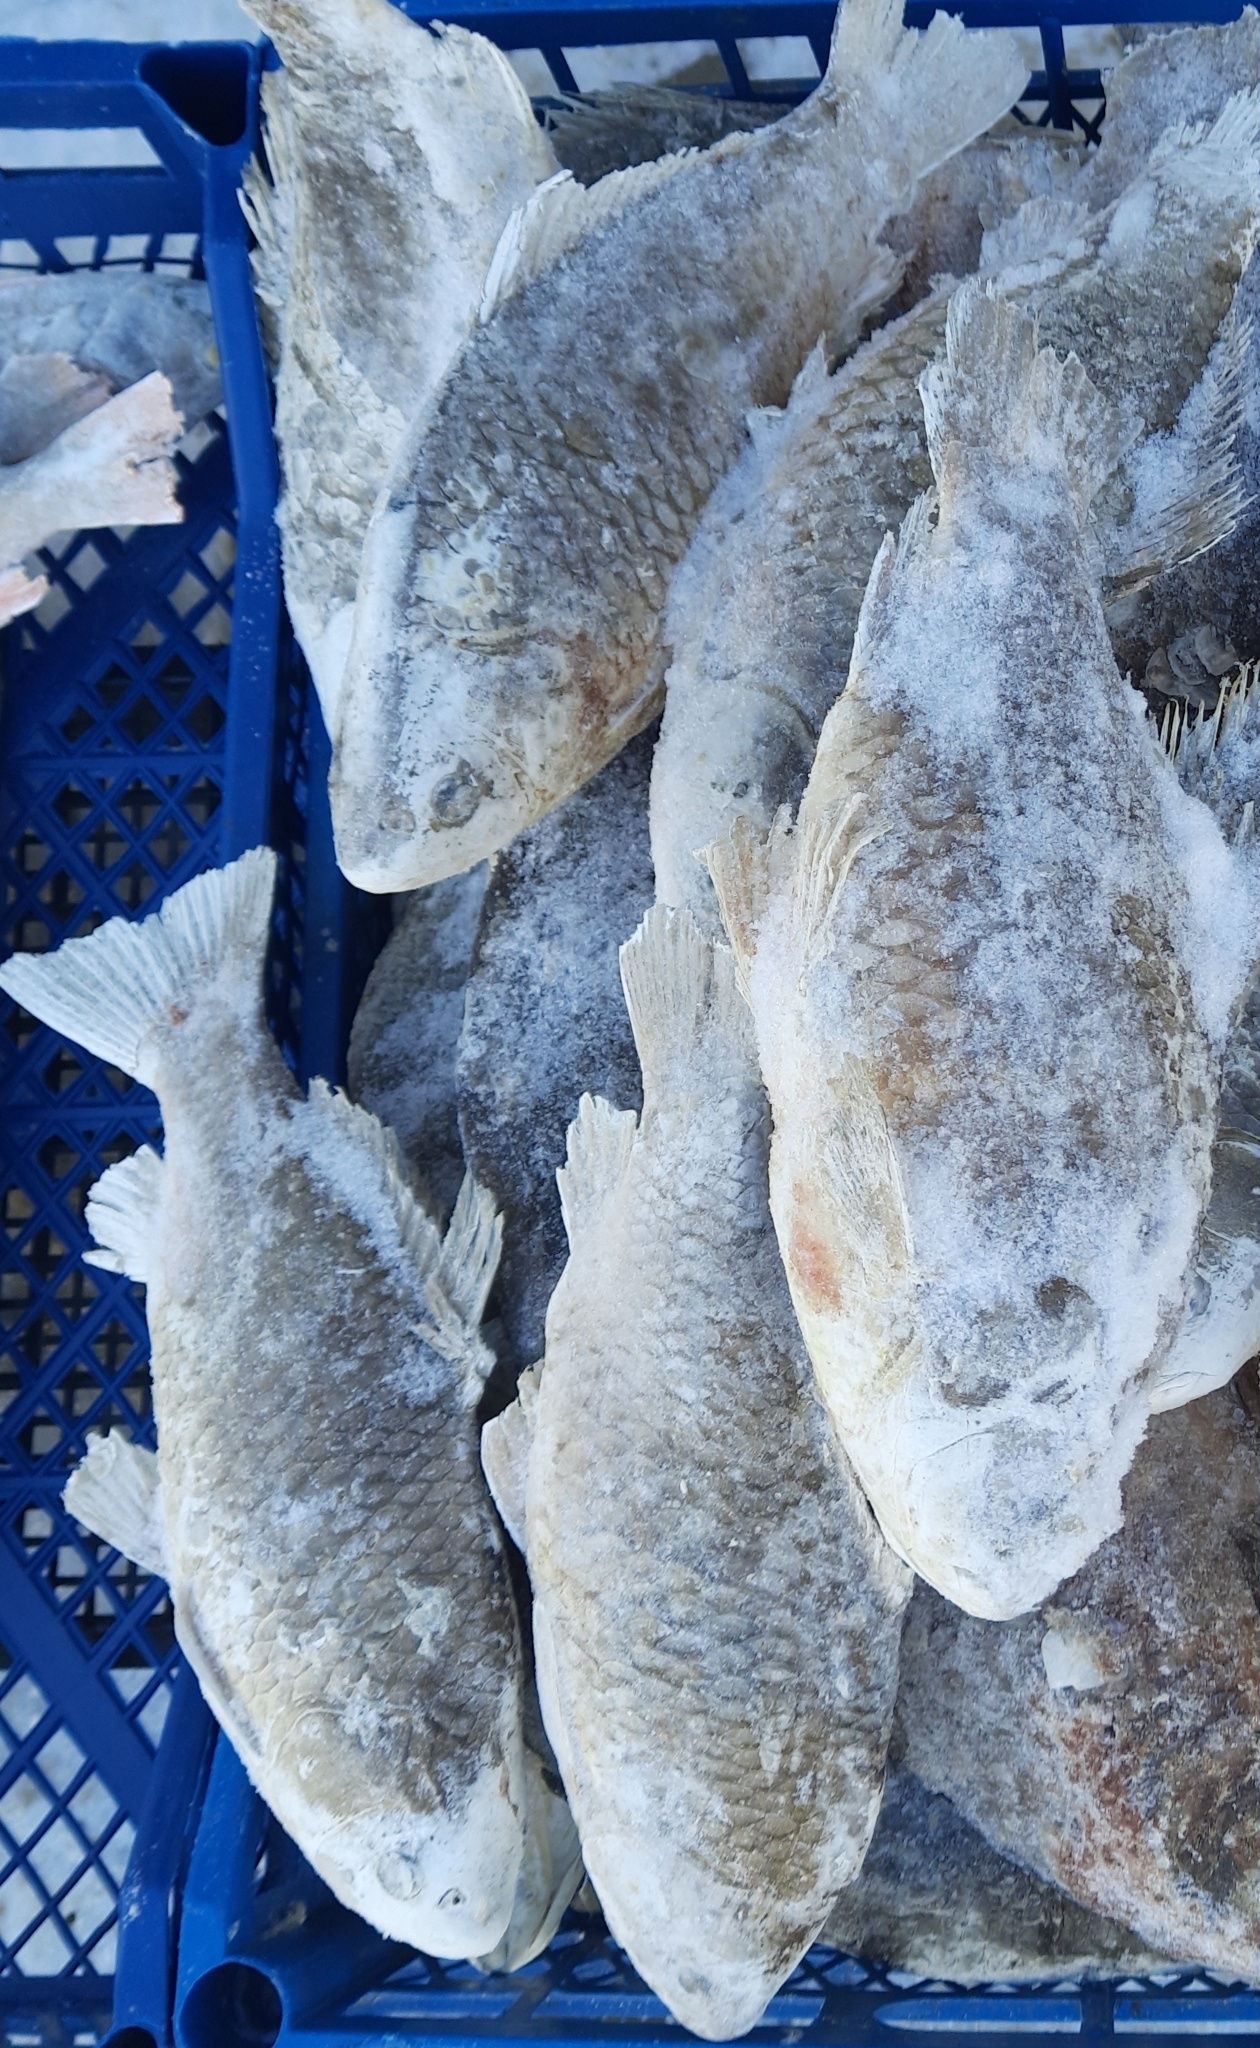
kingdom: Animalia
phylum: Chordata
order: Cypriniformes
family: Cyprinidae
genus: Carassius
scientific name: Carassius gibelio
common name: Prussian carp
